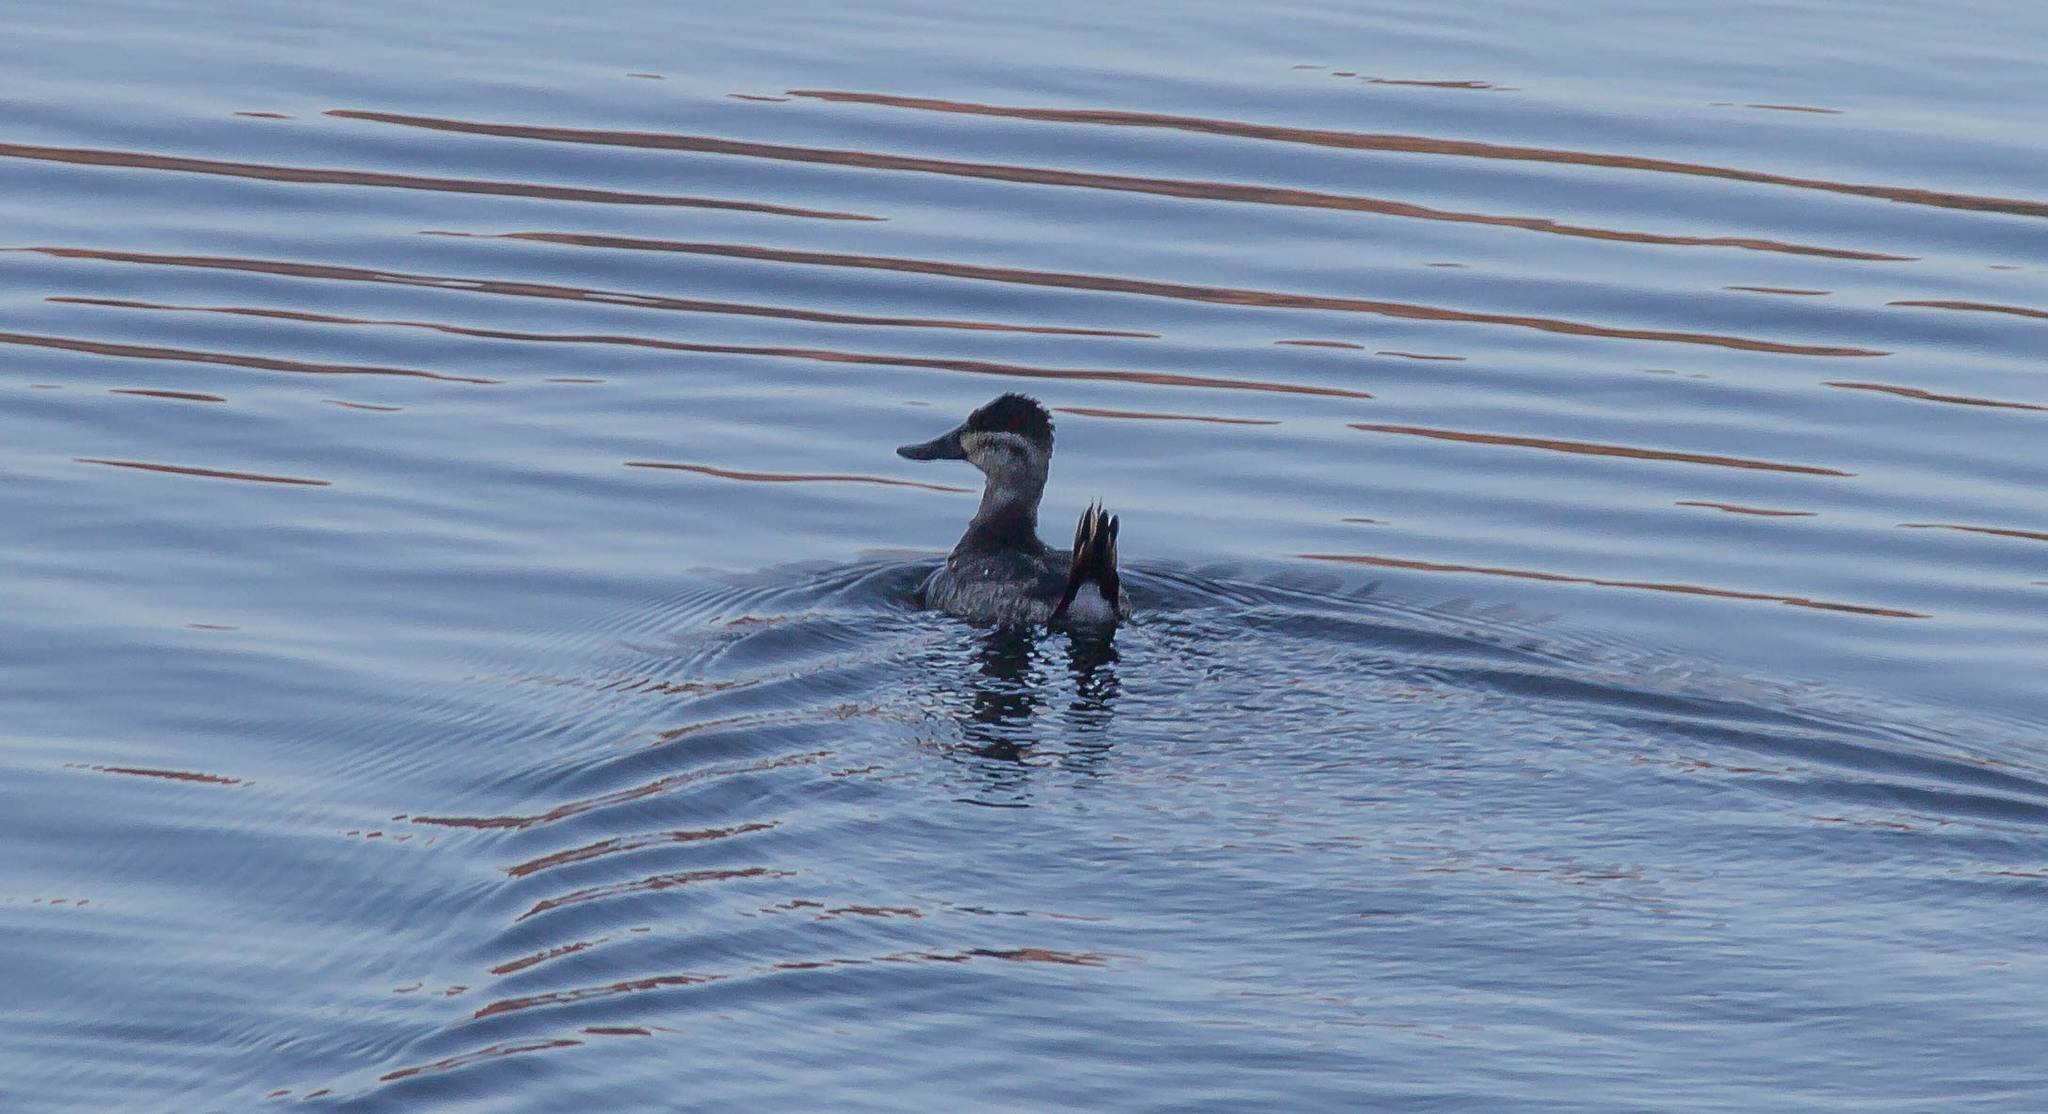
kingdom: Animalia
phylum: Chordata
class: Aves
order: Anseriformes
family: Anatidae
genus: Oxyura
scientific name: Oxyura jamaicensis
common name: Ruddy duck
